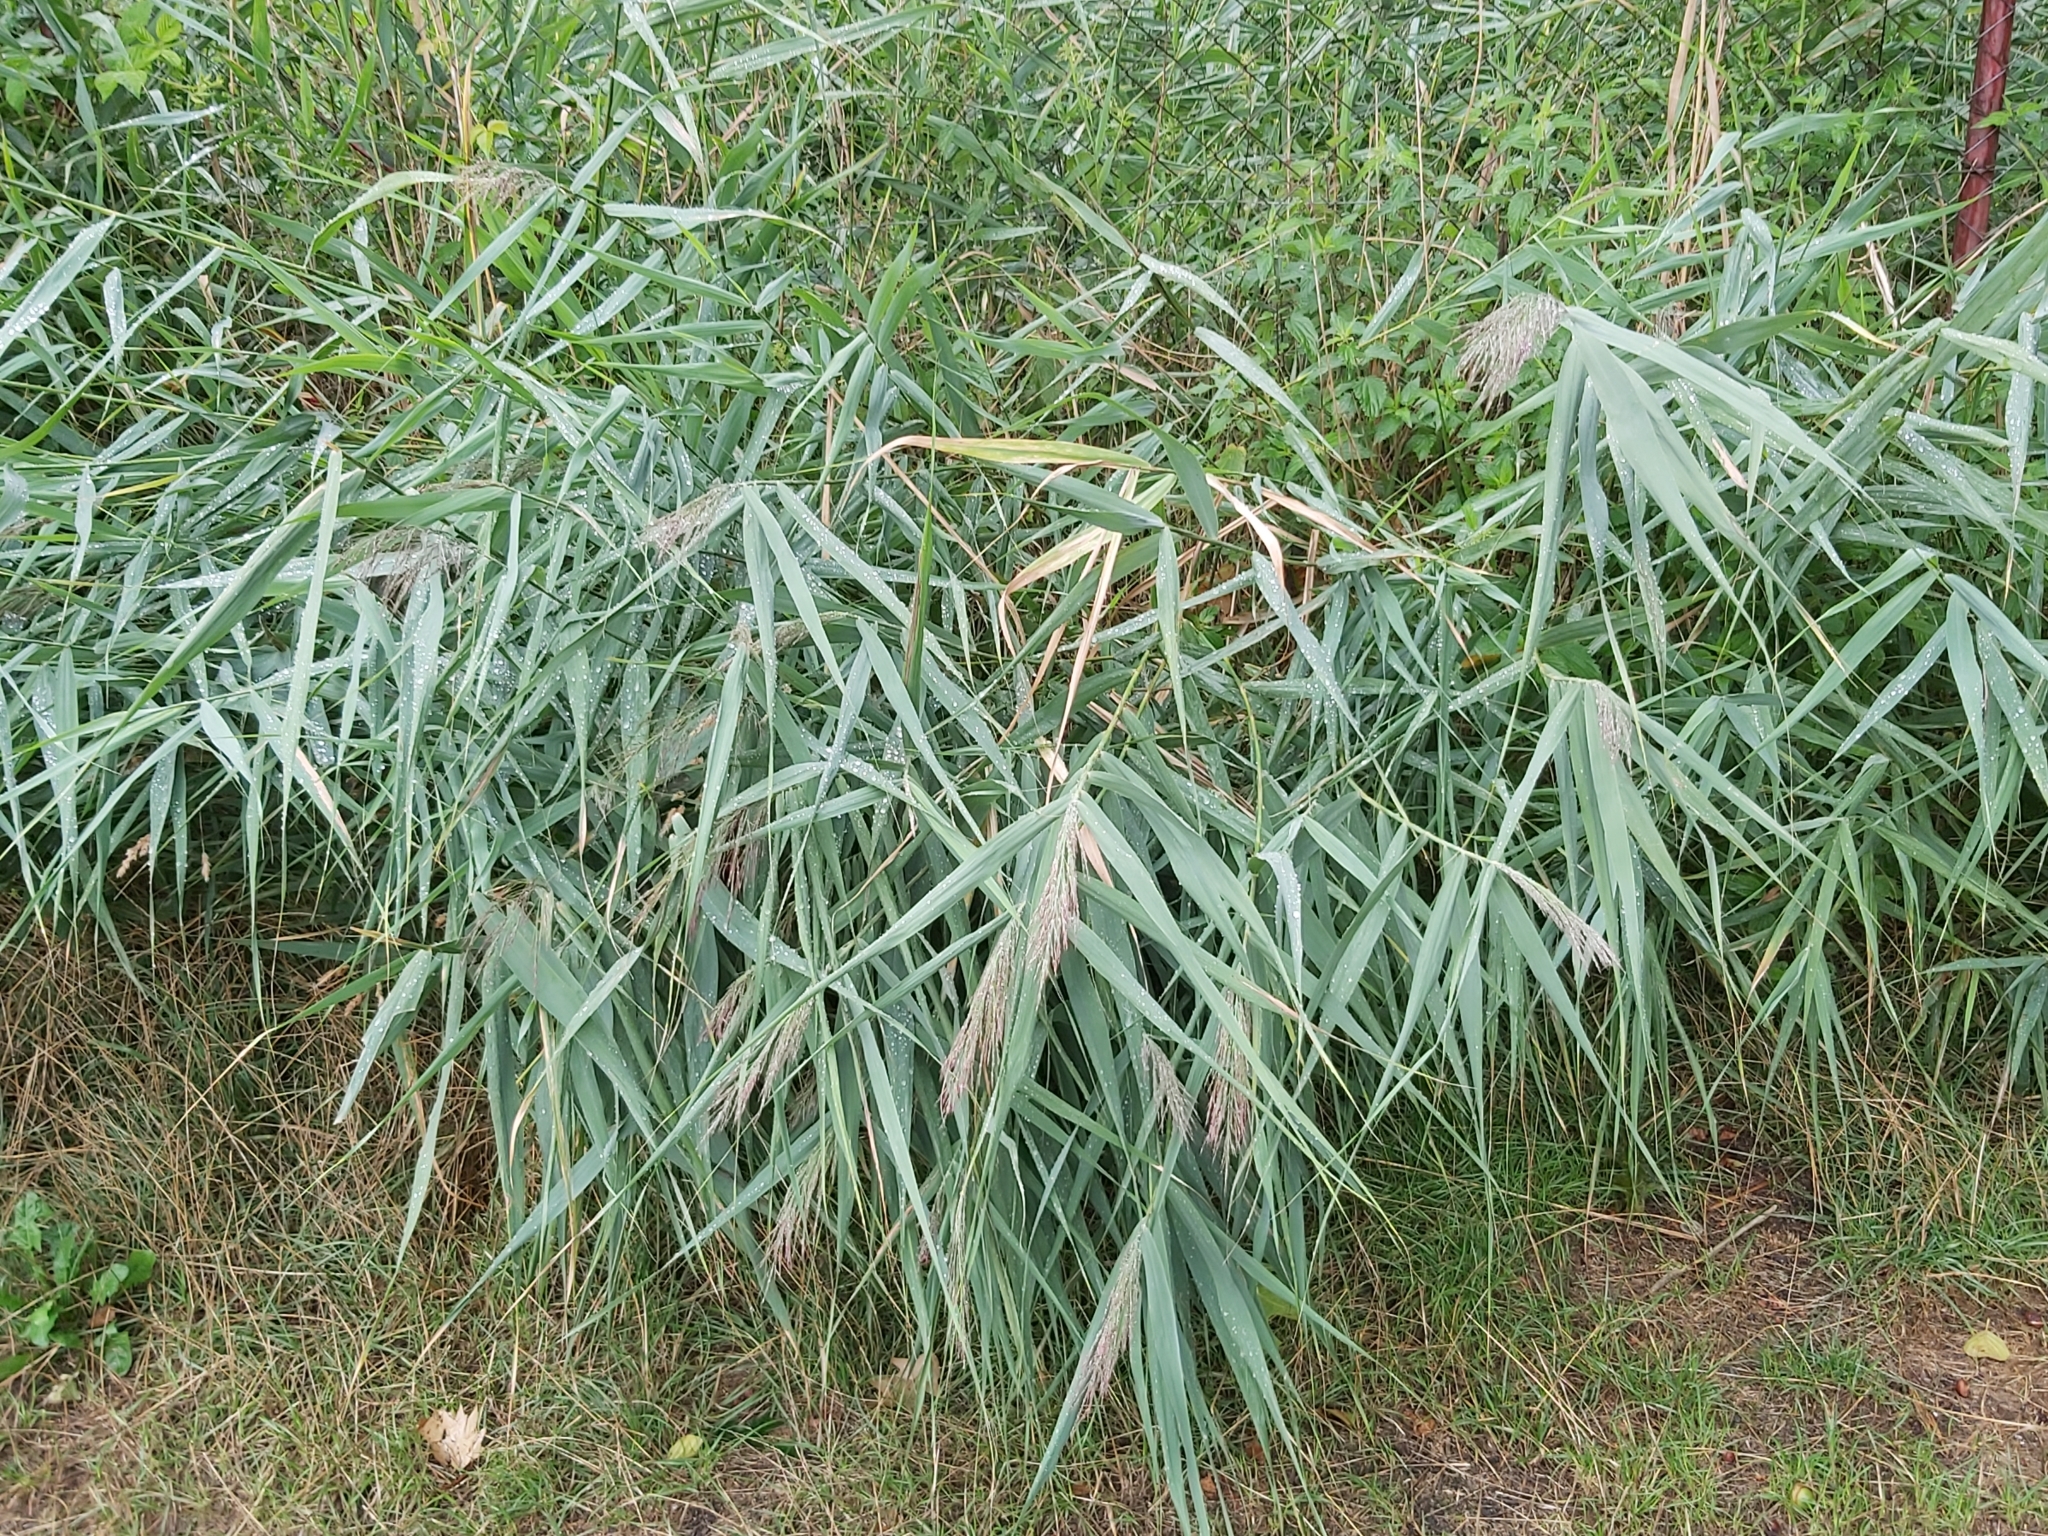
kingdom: Plantae
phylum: Tracheophyta
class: Liliopsida
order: Poales
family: Poaceae
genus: Phragmites
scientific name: Phragmites australis
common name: Common reed
